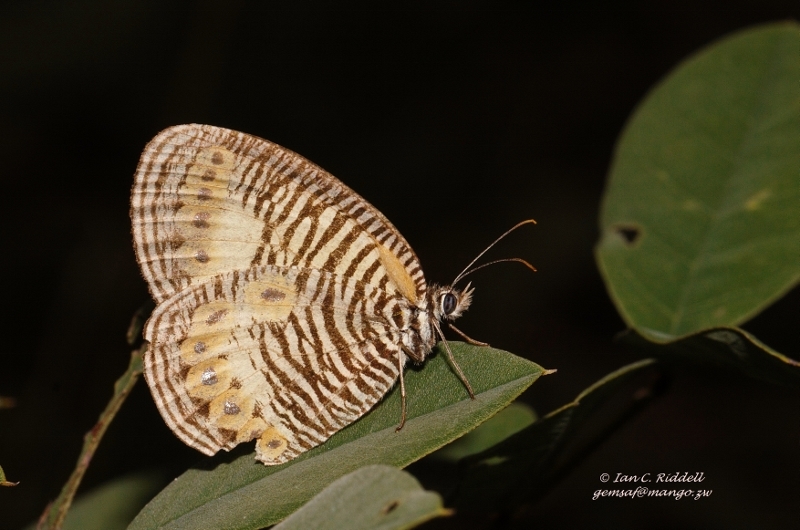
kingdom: Animalia
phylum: Arthropoda
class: Insecta
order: Lepidoptera
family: Nymphalidae
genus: Physcaeneura
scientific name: Physcaeneura pione
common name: Light webbed ringlet
